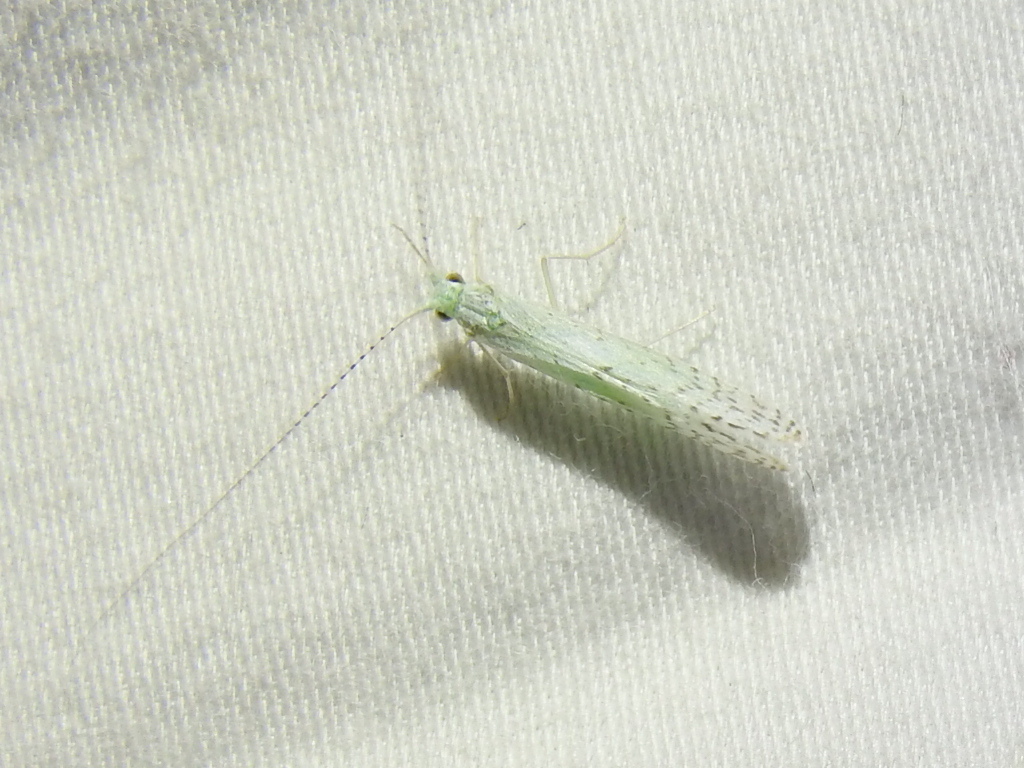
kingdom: Animalia
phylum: Arthropoda
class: Insecta
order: Trichoptera
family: Leptoceridae
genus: Nectopsyche
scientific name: Nectopsyche candida
